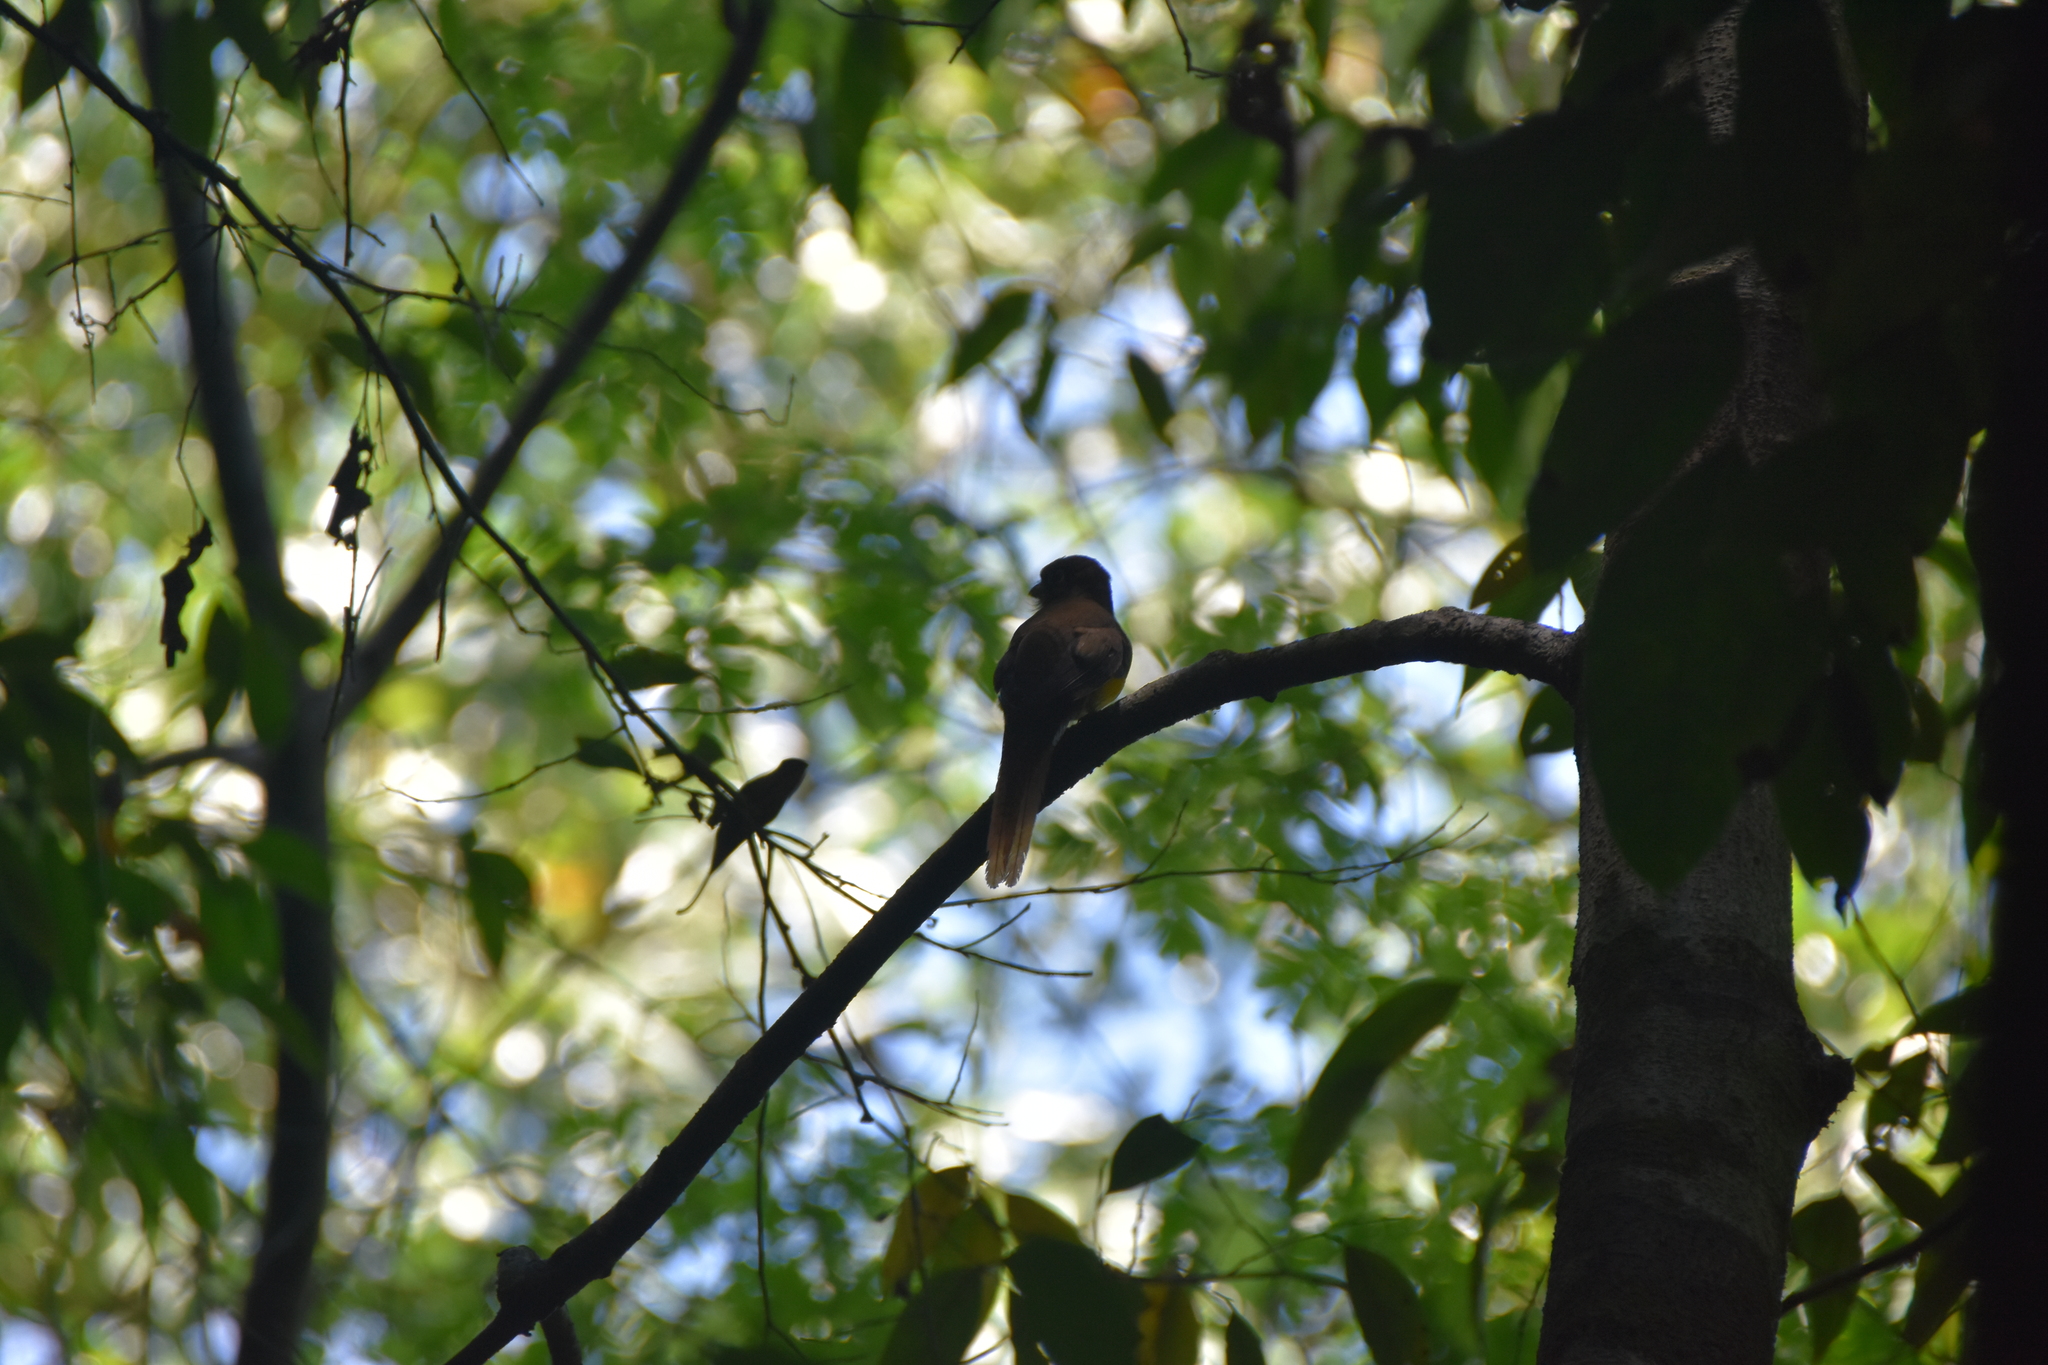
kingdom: Animalia
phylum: Chordata
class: Aves
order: Trogoniformes
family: Trogonidae
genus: Trogon
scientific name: Trogon rufus
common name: Black-throated trogon
